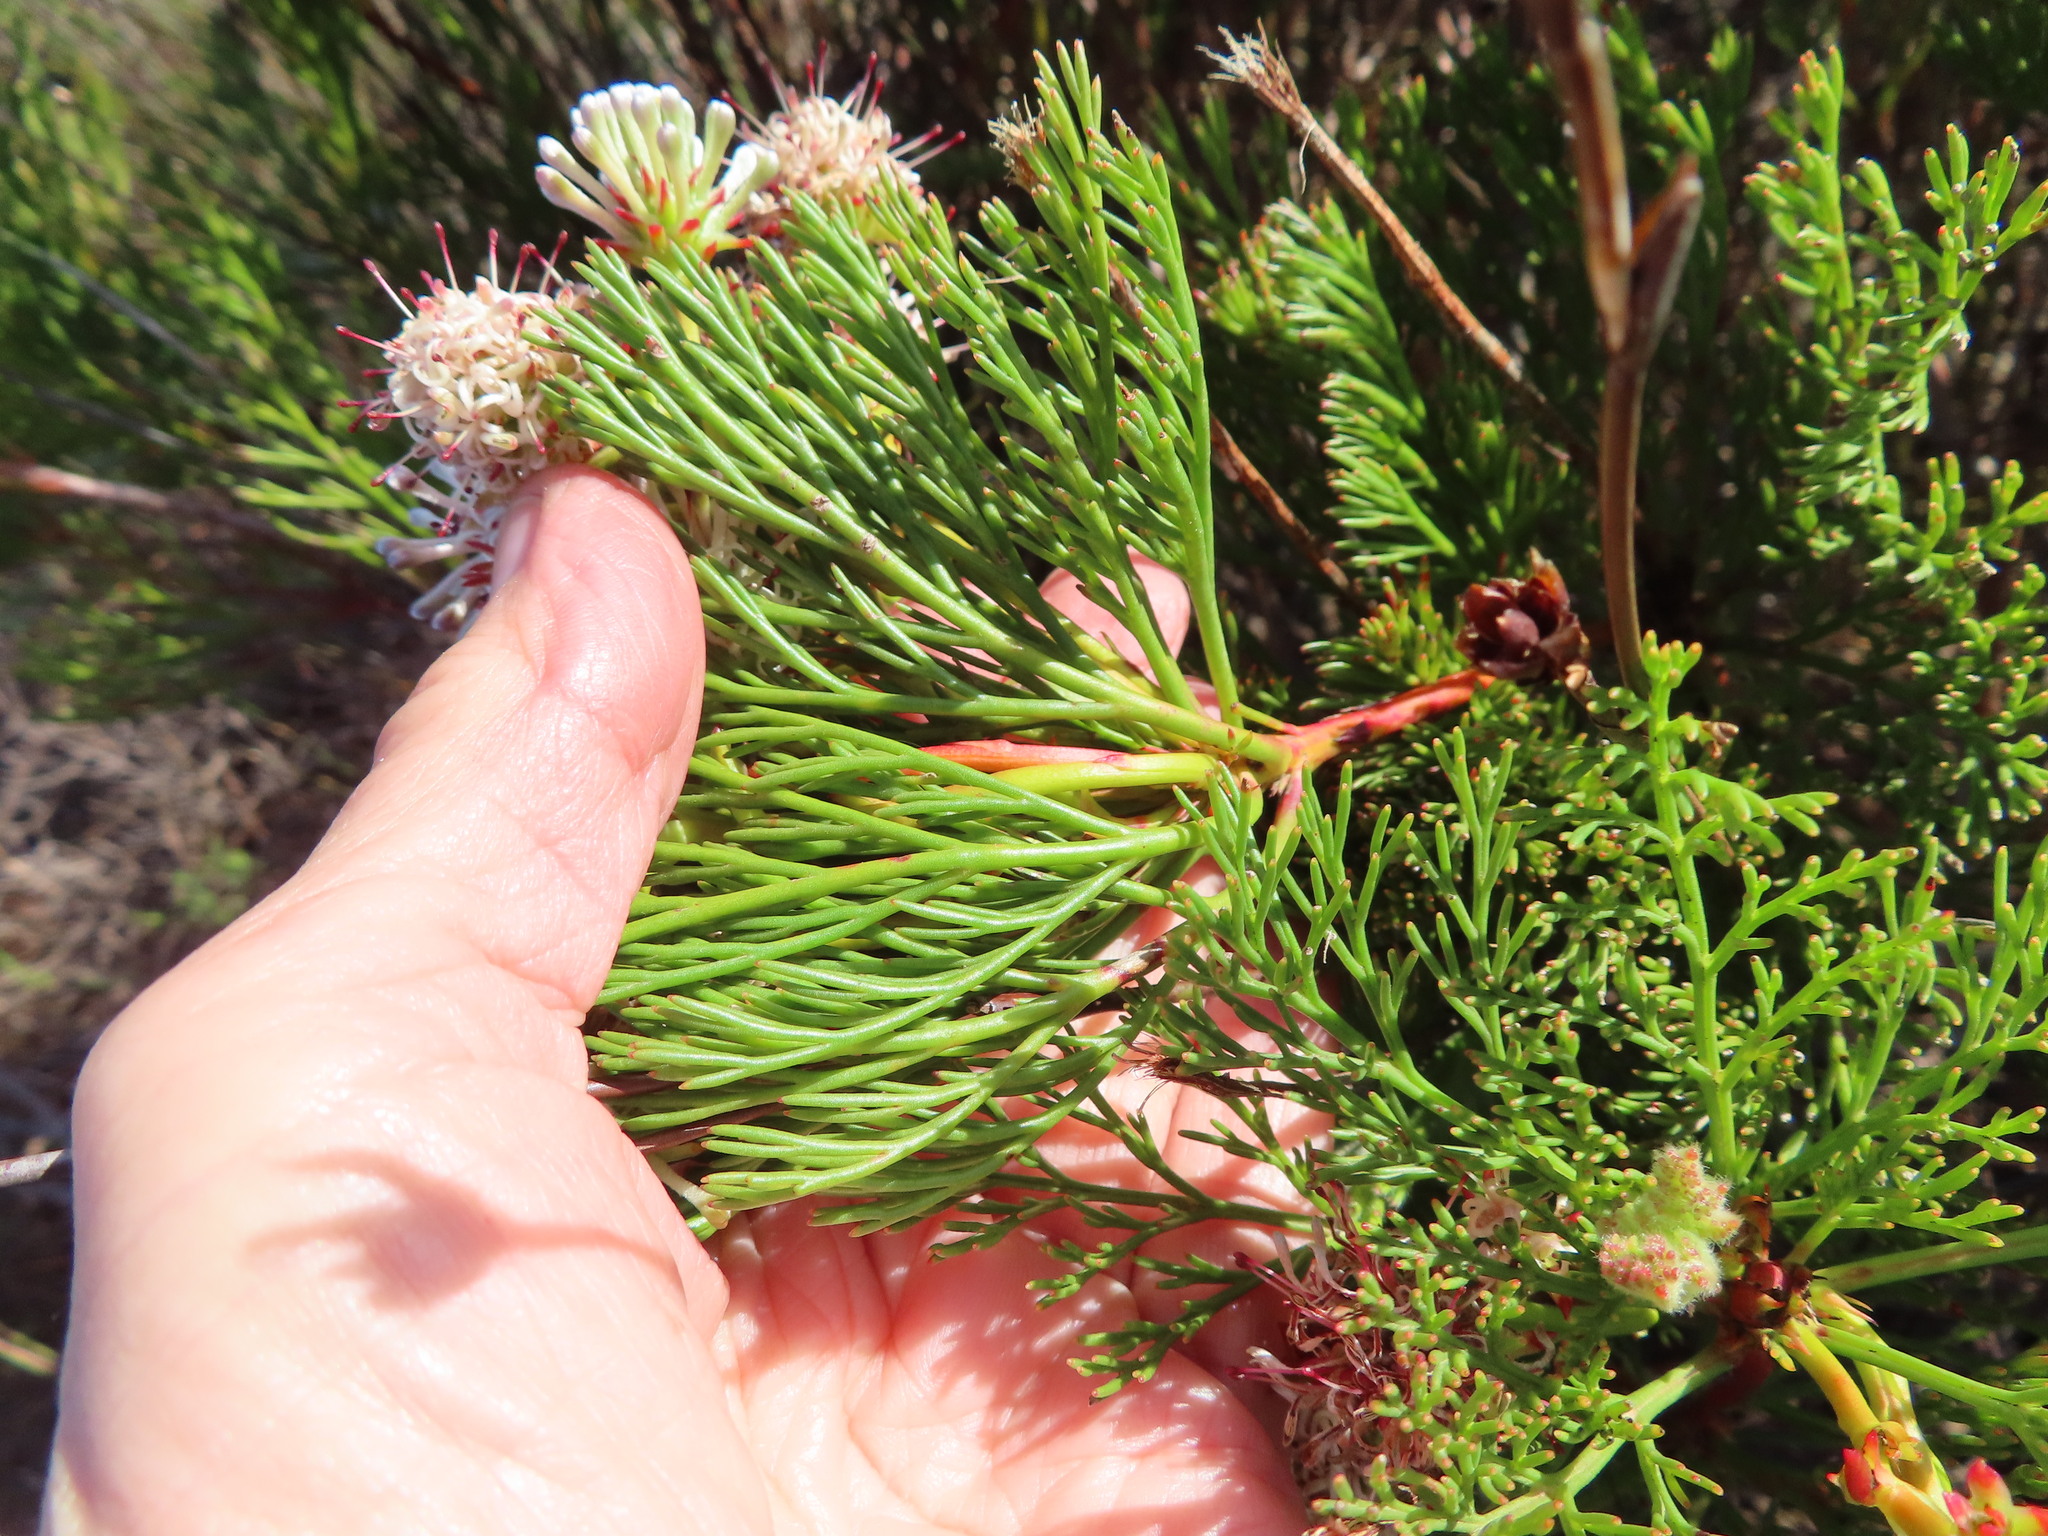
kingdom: Plantae
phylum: Tracheophyta
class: Magnoliopsida
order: Proteales
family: Proteaceae
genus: Serruria
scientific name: Serruria elongata
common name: Long-stalk spiderhead
